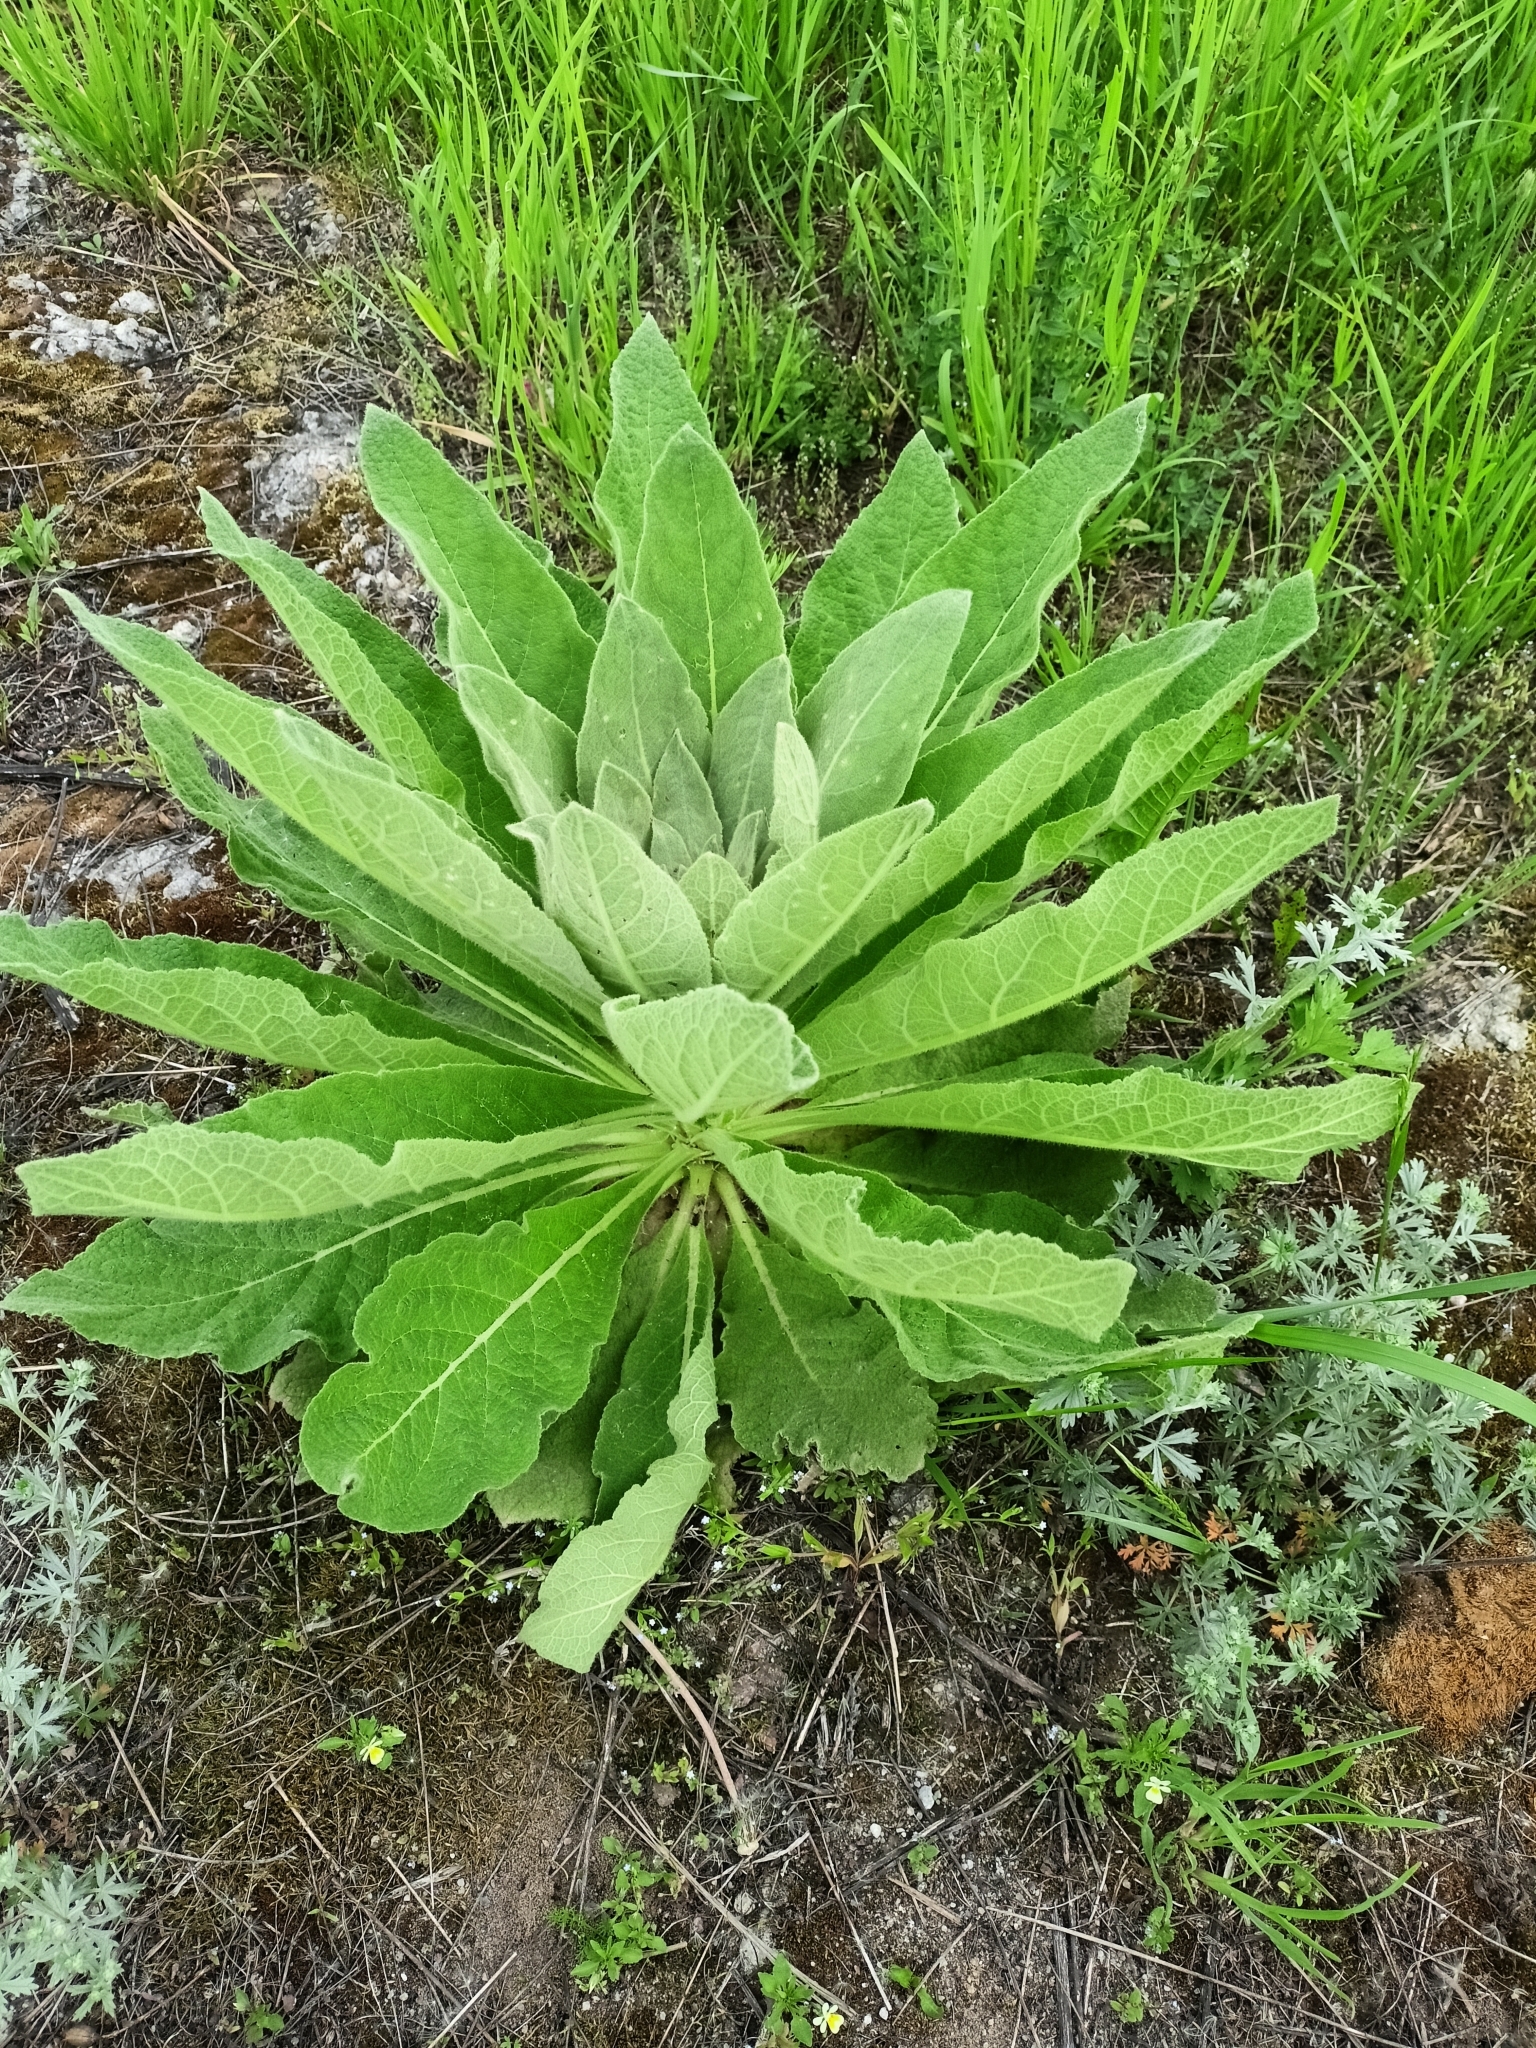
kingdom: Plantae
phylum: Tracheophyta
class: Magnoliopsida
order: Lamiales
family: Scrophulariaceae
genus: Verbascum
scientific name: Verbascum thapsus
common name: Common mullein
